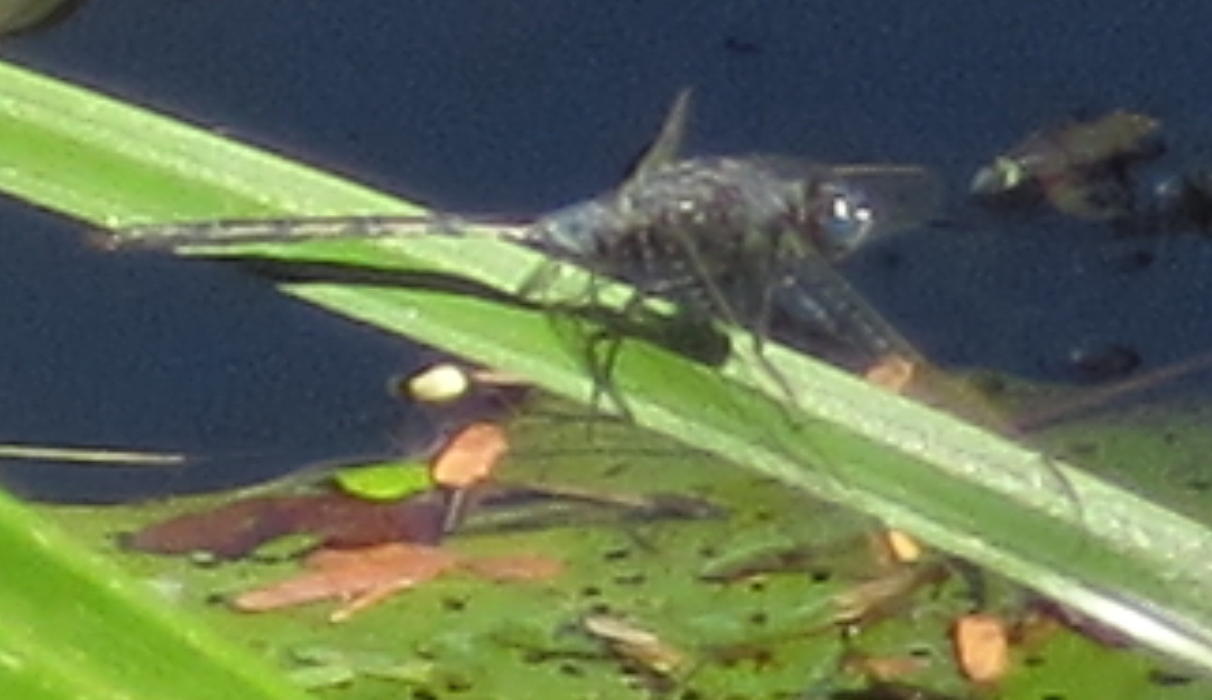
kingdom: Animalia
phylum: Arthropoda
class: Insecta
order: Odonata
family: Libellulidae
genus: Orthetrum
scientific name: Orthetrum trinacria
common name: Long skimmer
